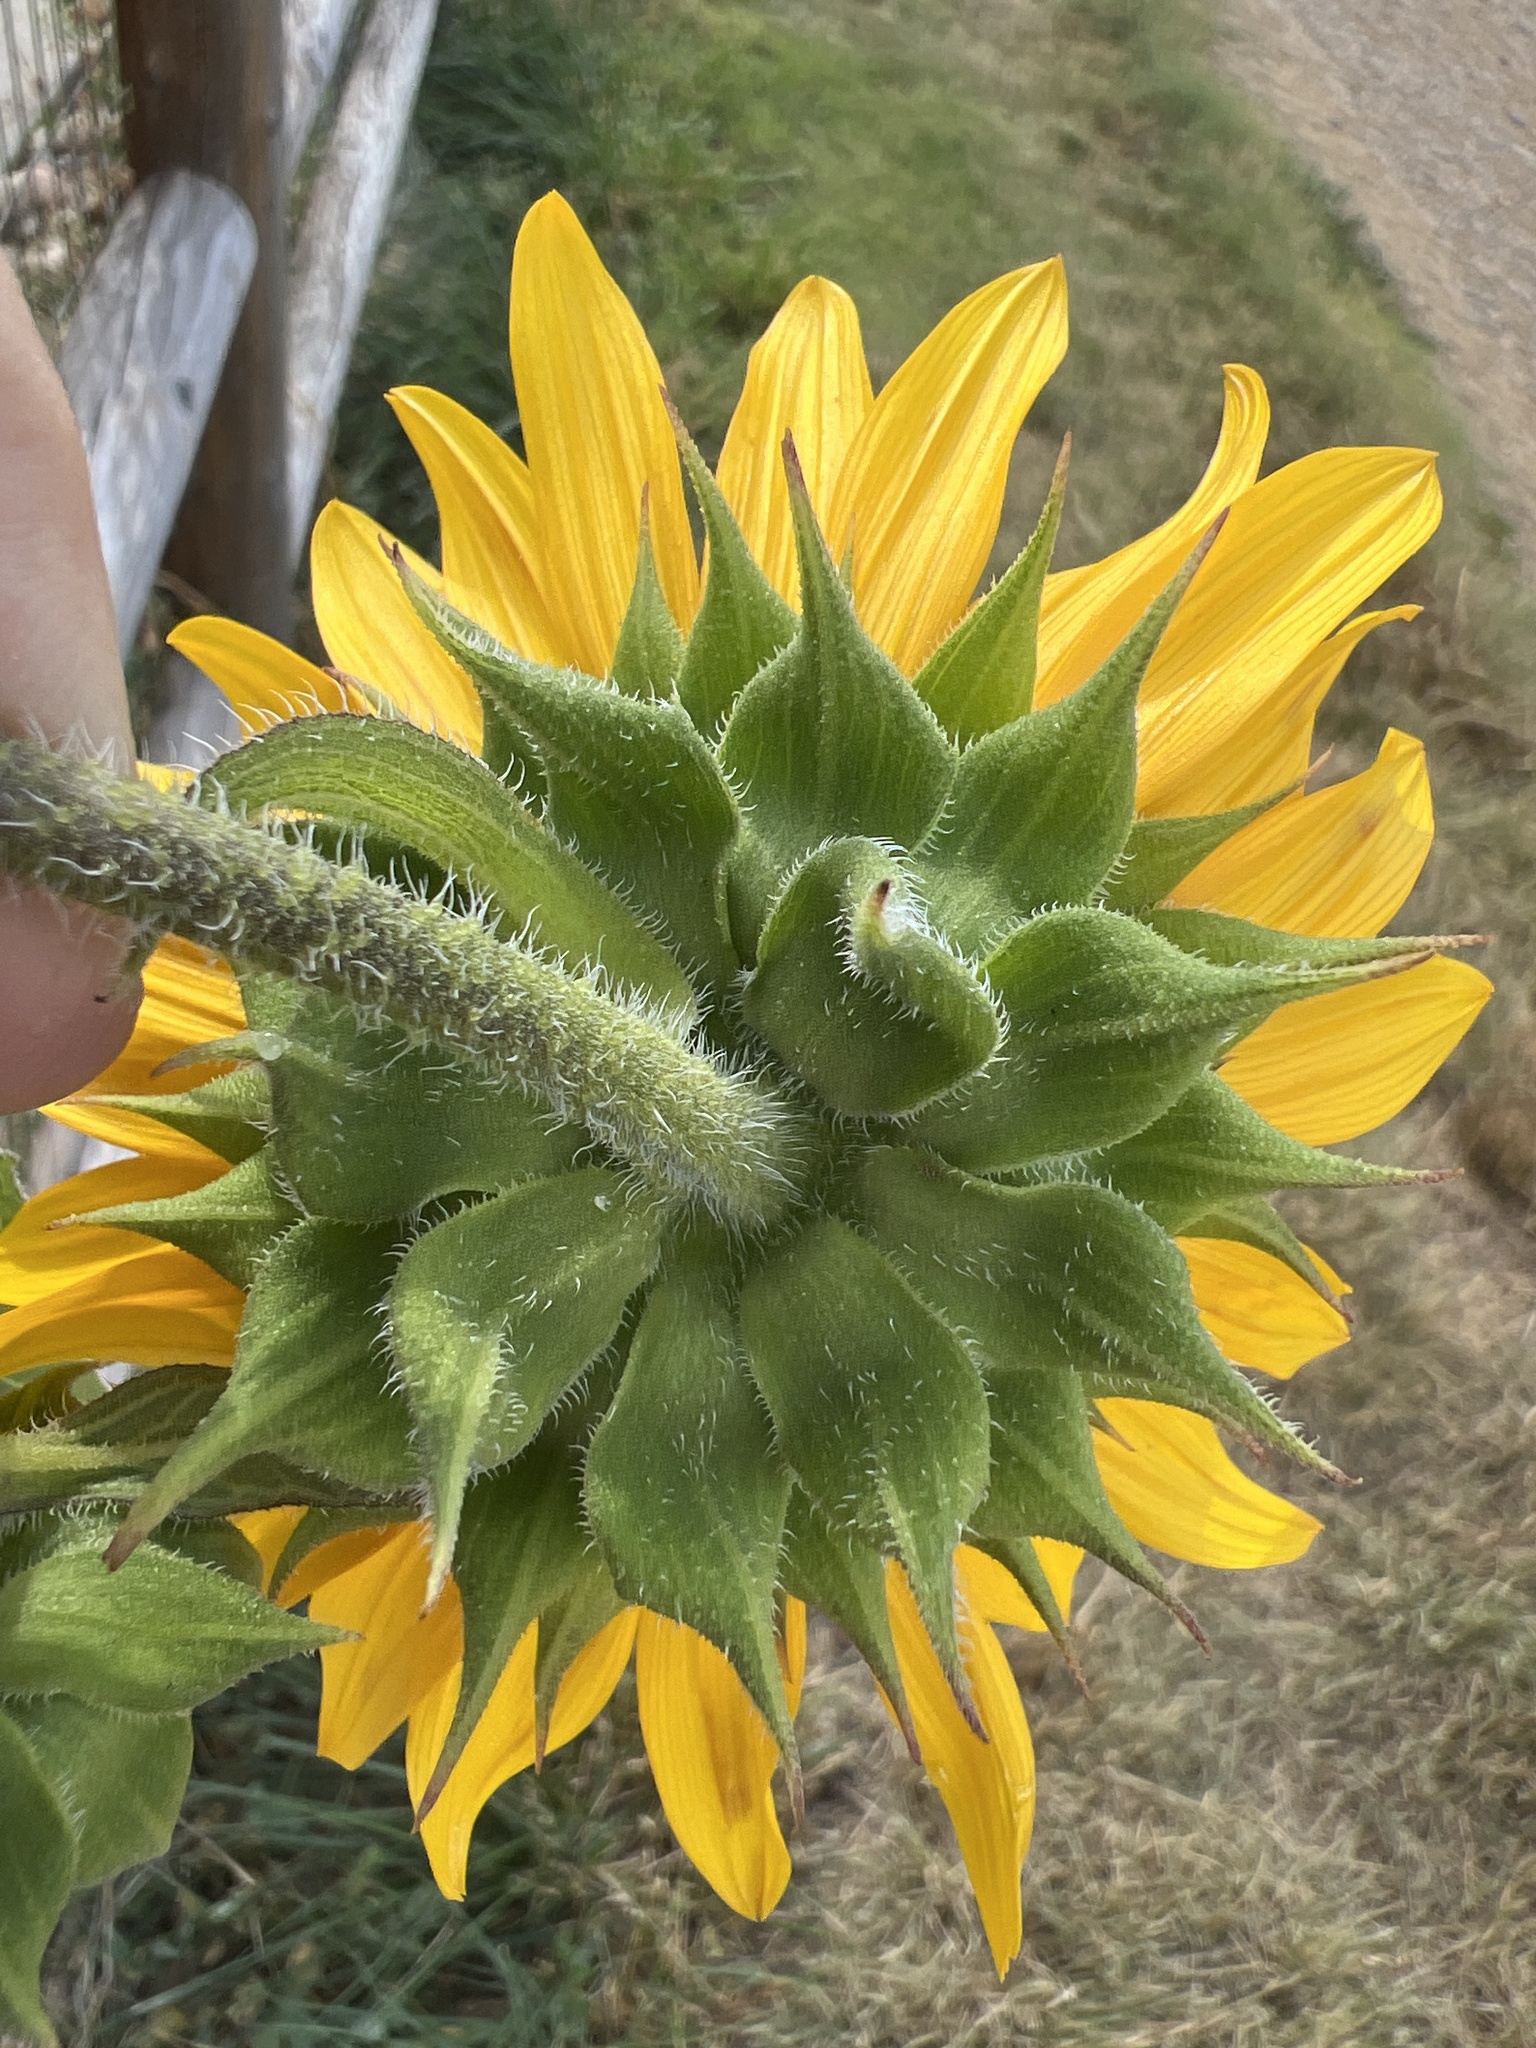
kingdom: Plantae
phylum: Tracheophyta
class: Magnoliopsida
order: Asterales
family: Asteraceae
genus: Helianthus
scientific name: Helianthus annuus
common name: Sunflower
